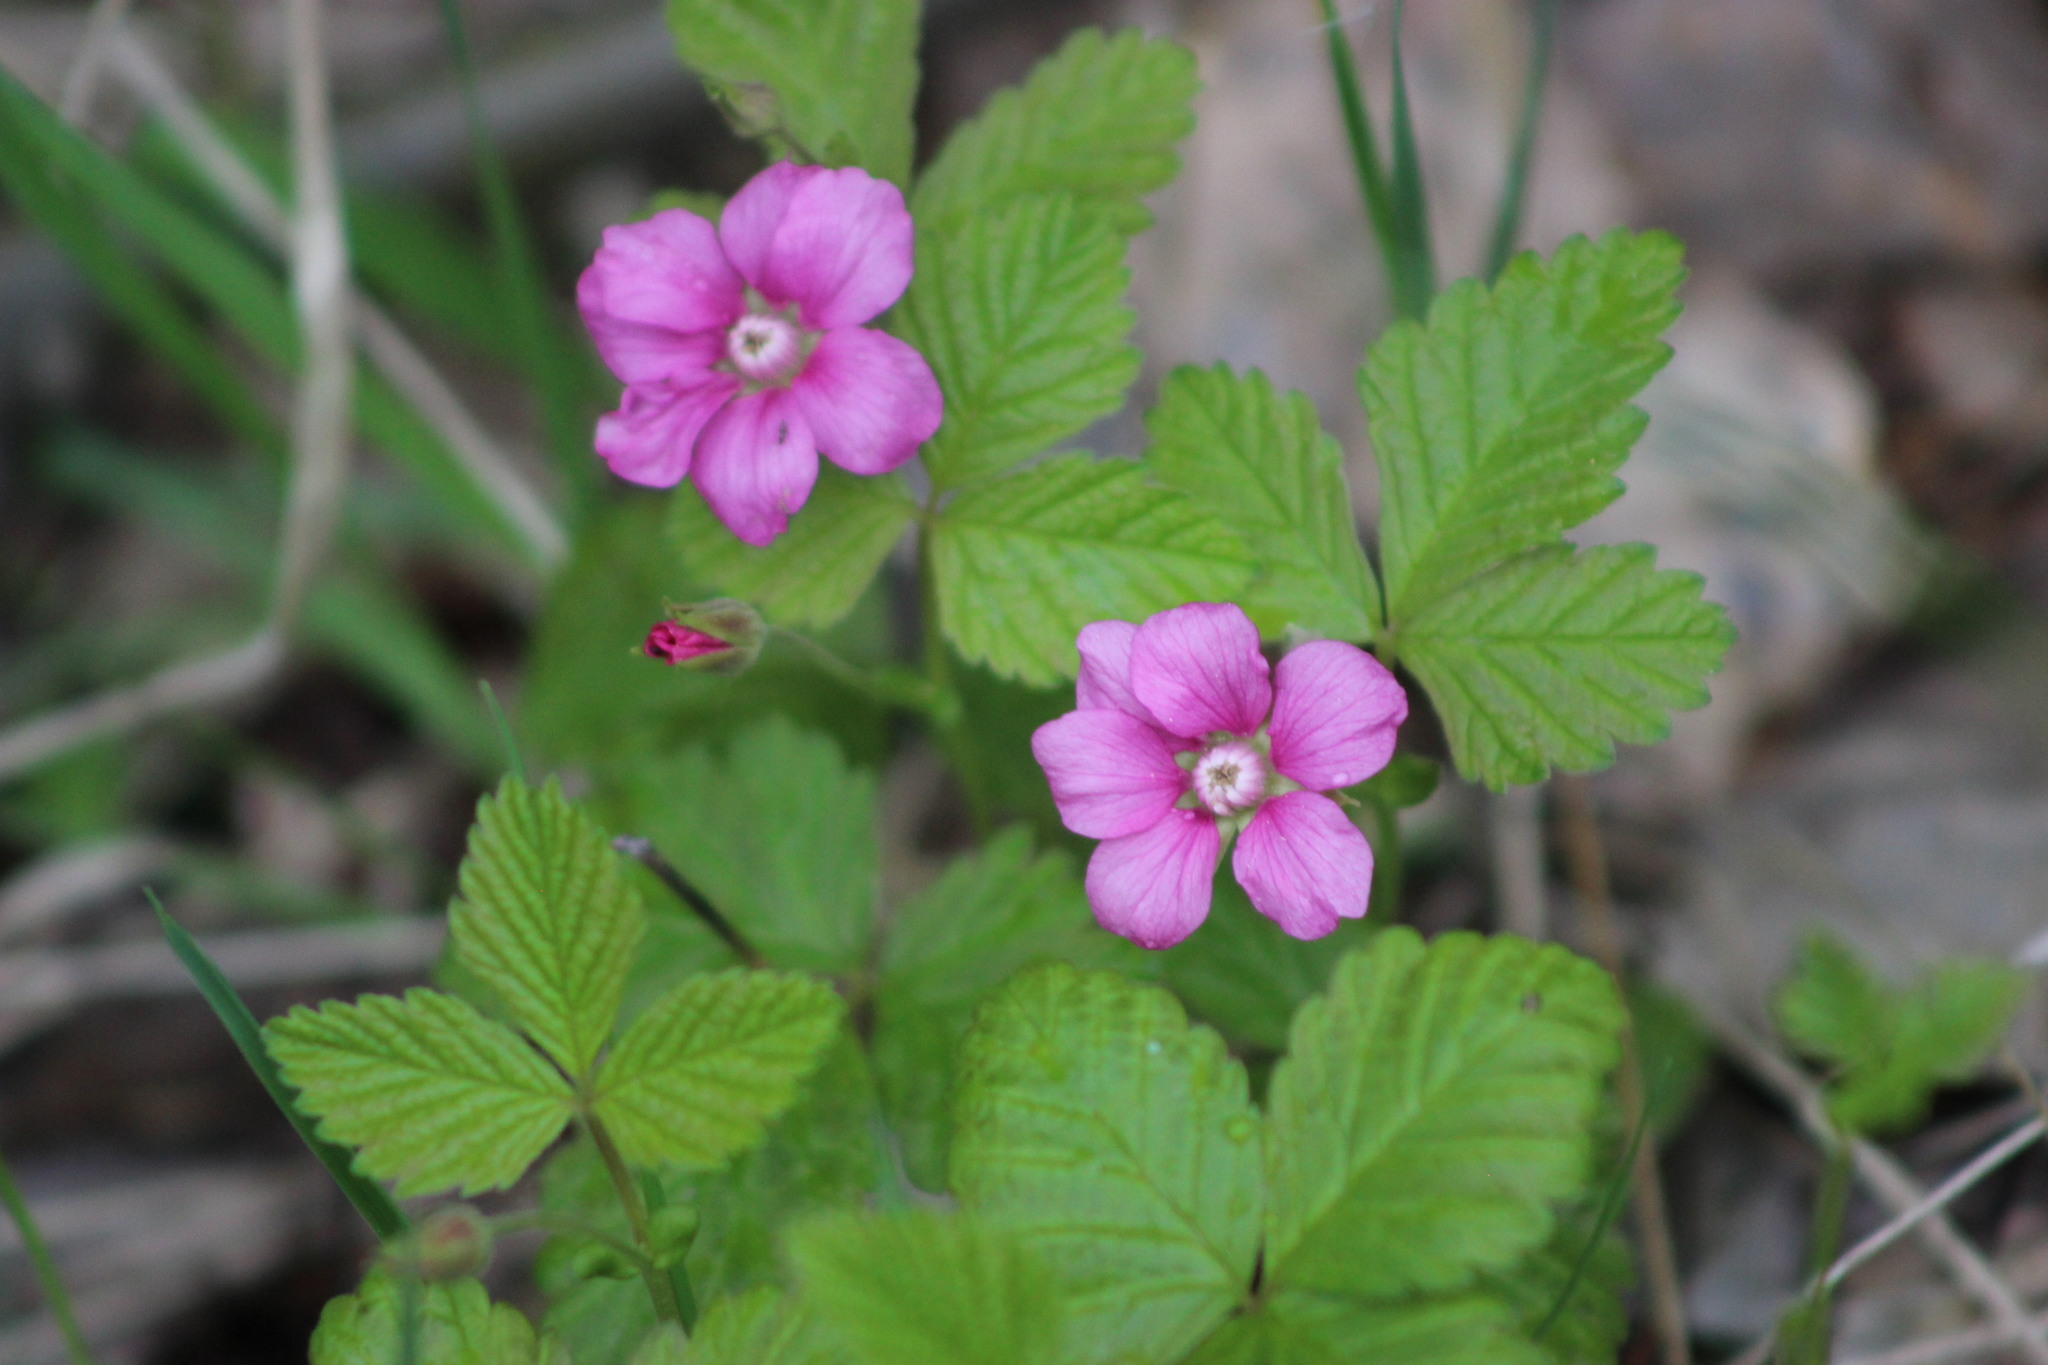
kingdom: Plantae
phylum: Tracheophyta
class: Magnoliopsida
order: Rosales
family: Rosaceae
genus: Rubus
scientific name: Rubus arcticus
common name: Arctic bramble
